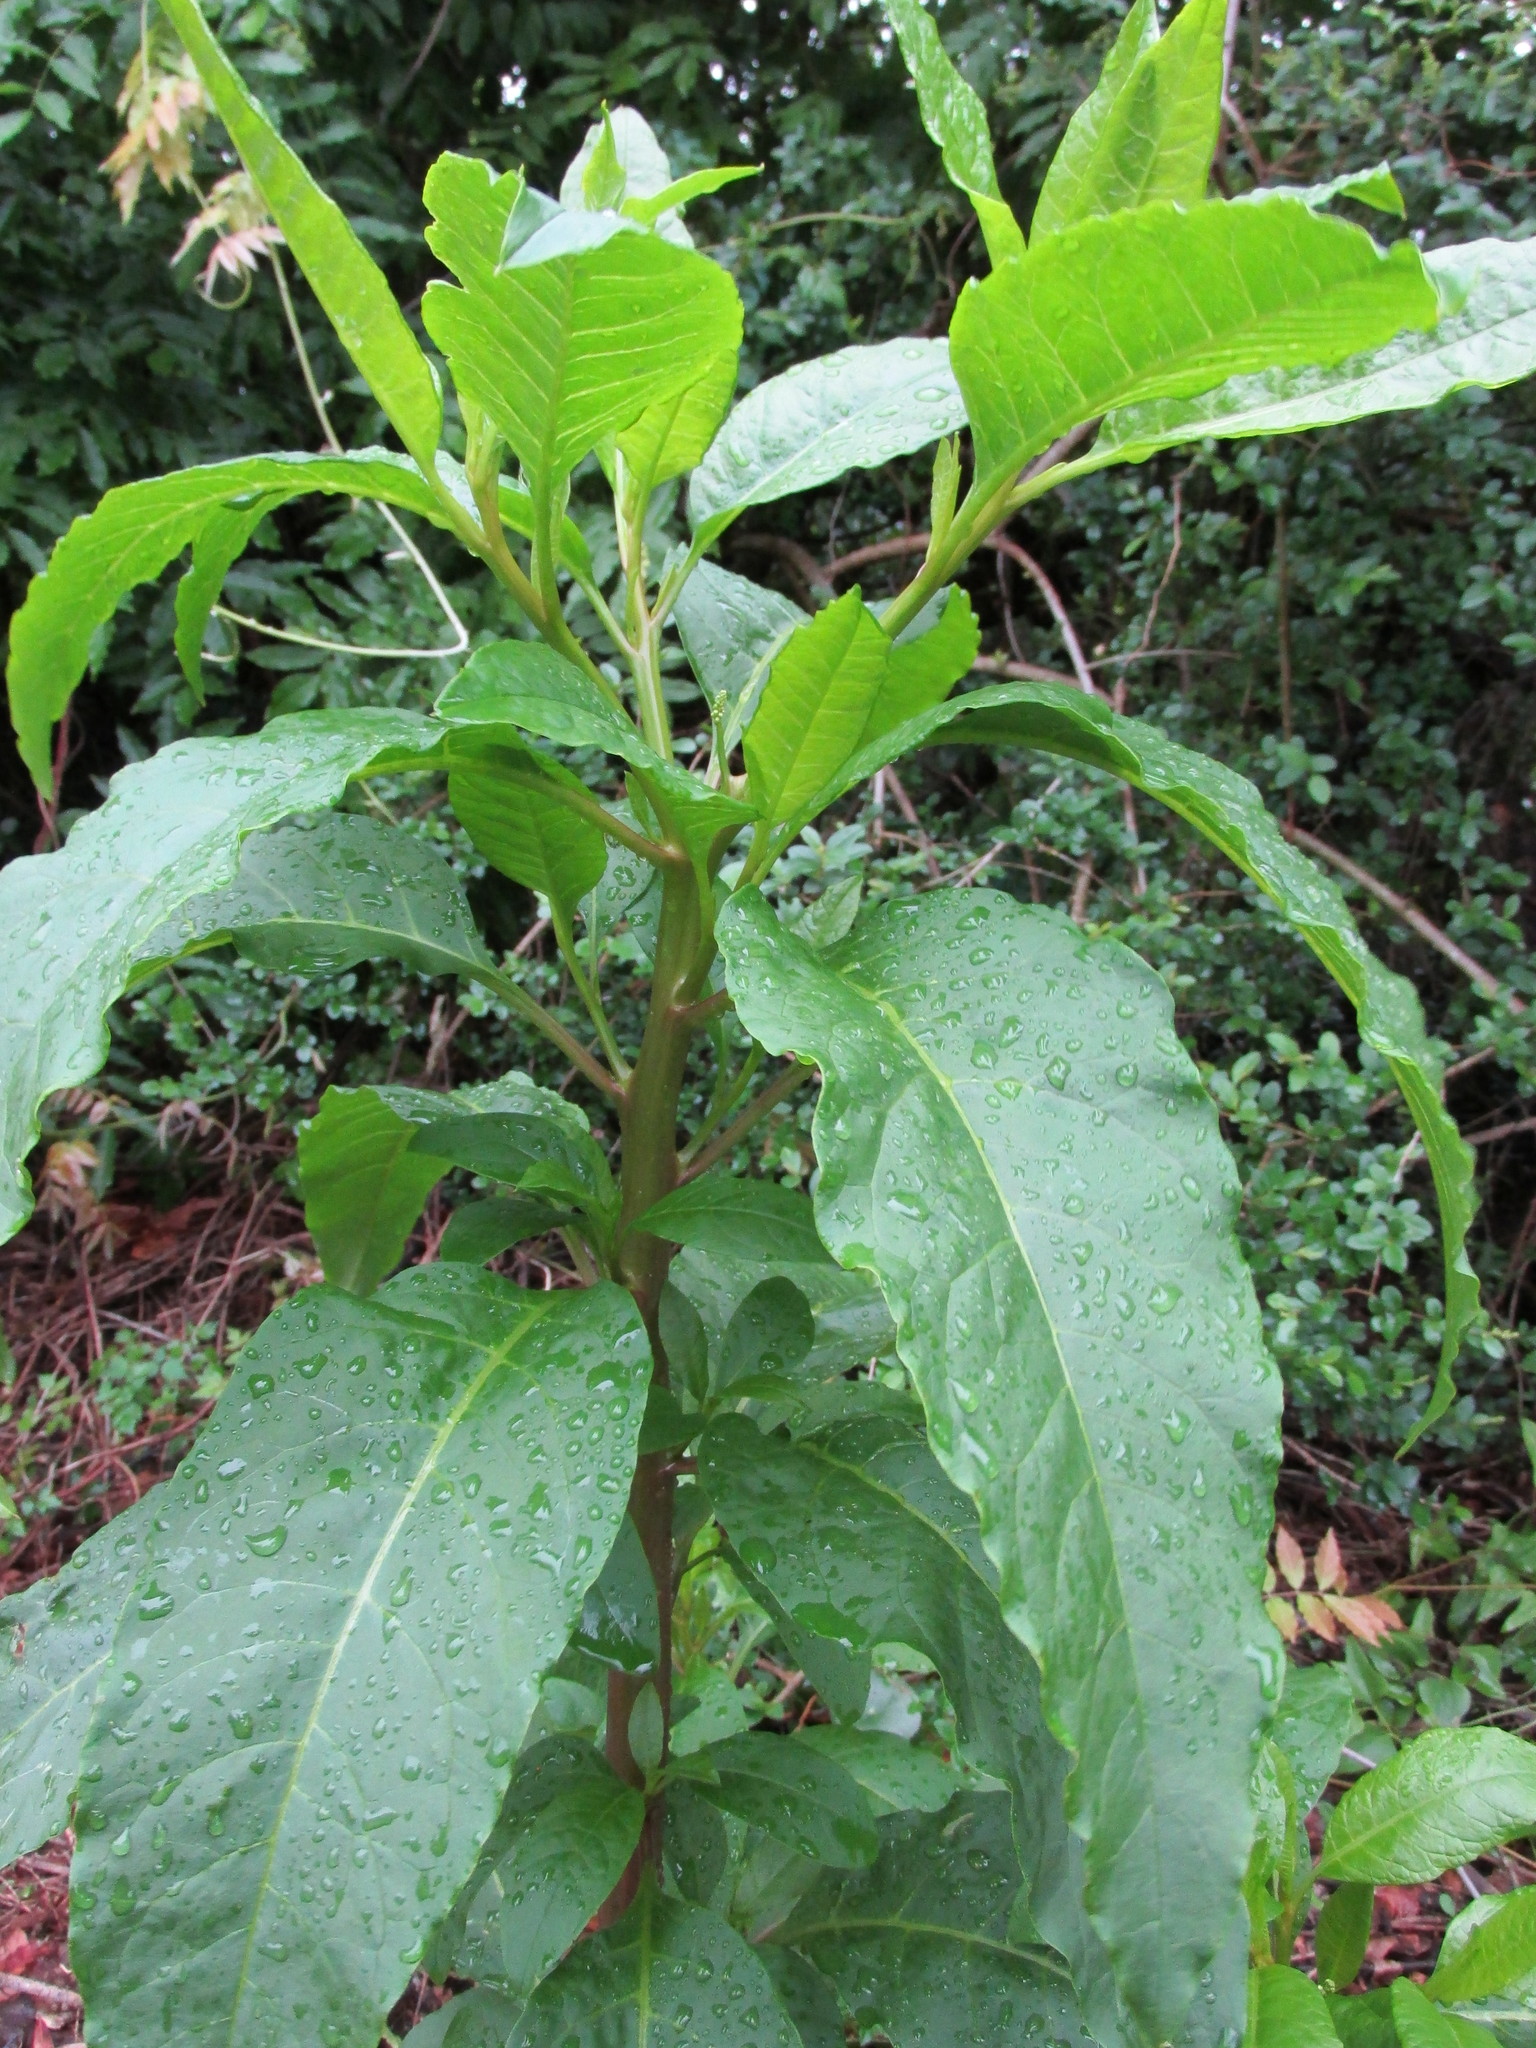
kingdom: Plantae
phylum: Tracheophyta
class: Magnoliopsida
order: Caryophyllales
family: Phytolaccaceae
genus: Phytolacca
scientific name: Phytolacca americana
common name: American pokeweed
